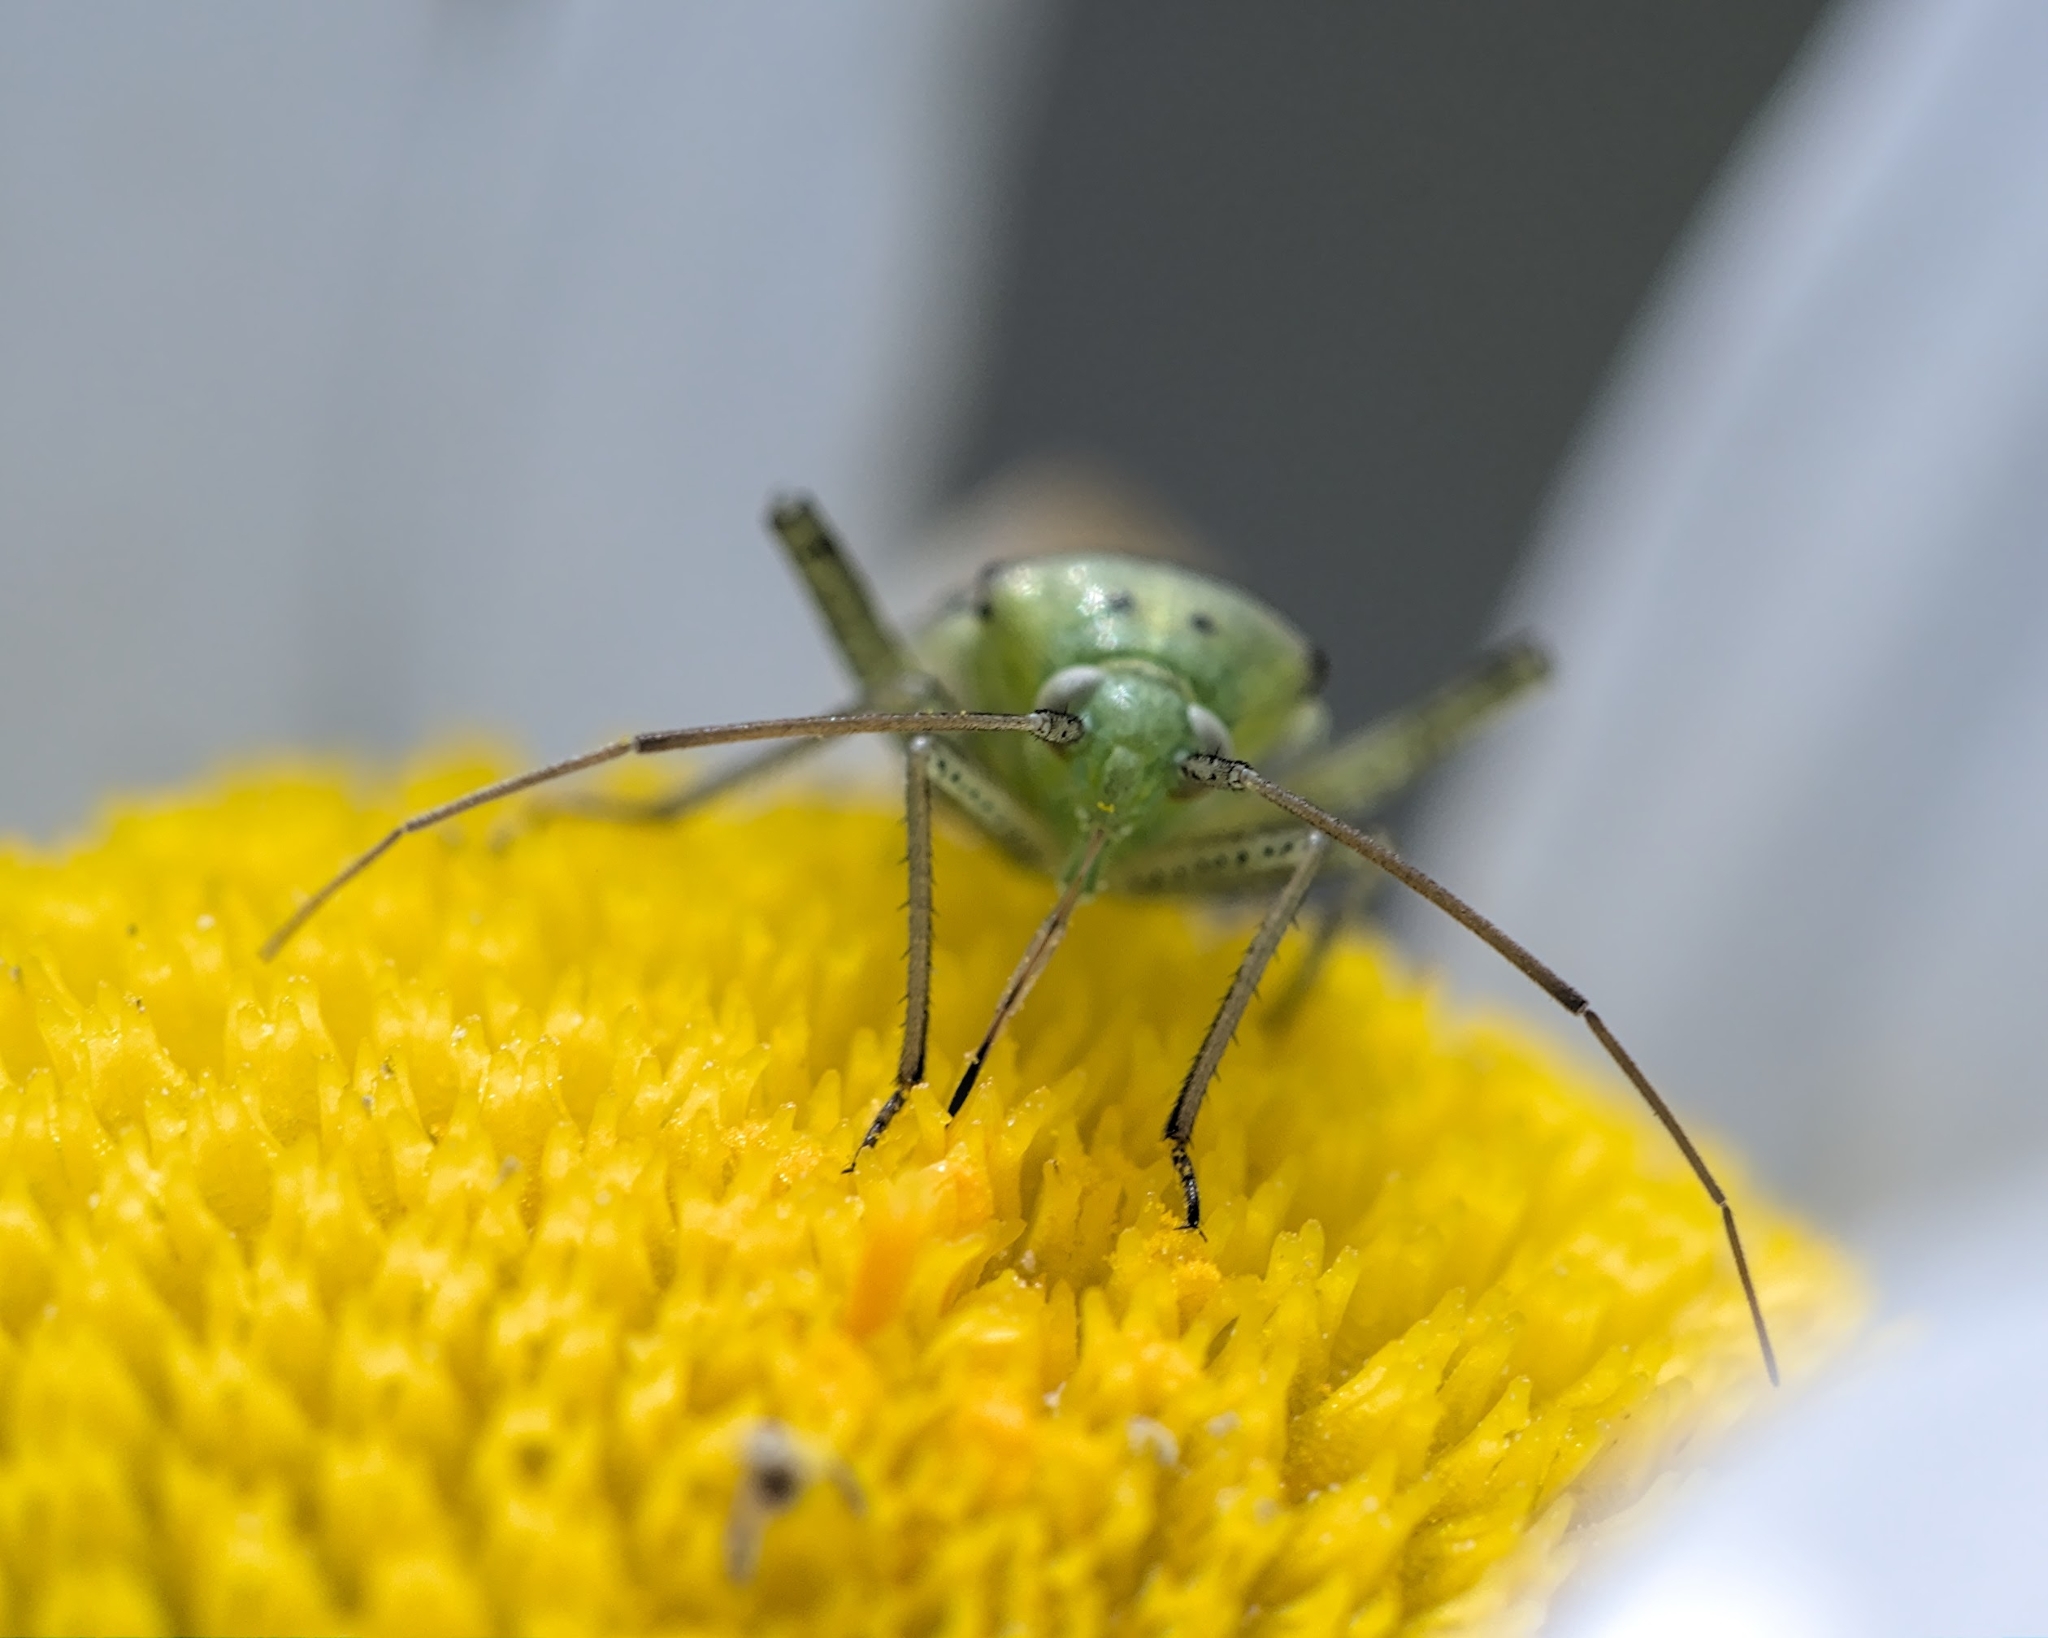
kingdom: Animalia
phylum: Arthropoda
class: Insecta
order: Hemiptera
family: Miridae
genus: Closterotomus
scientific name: Closterotomus norvegicus
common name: Plant bug
